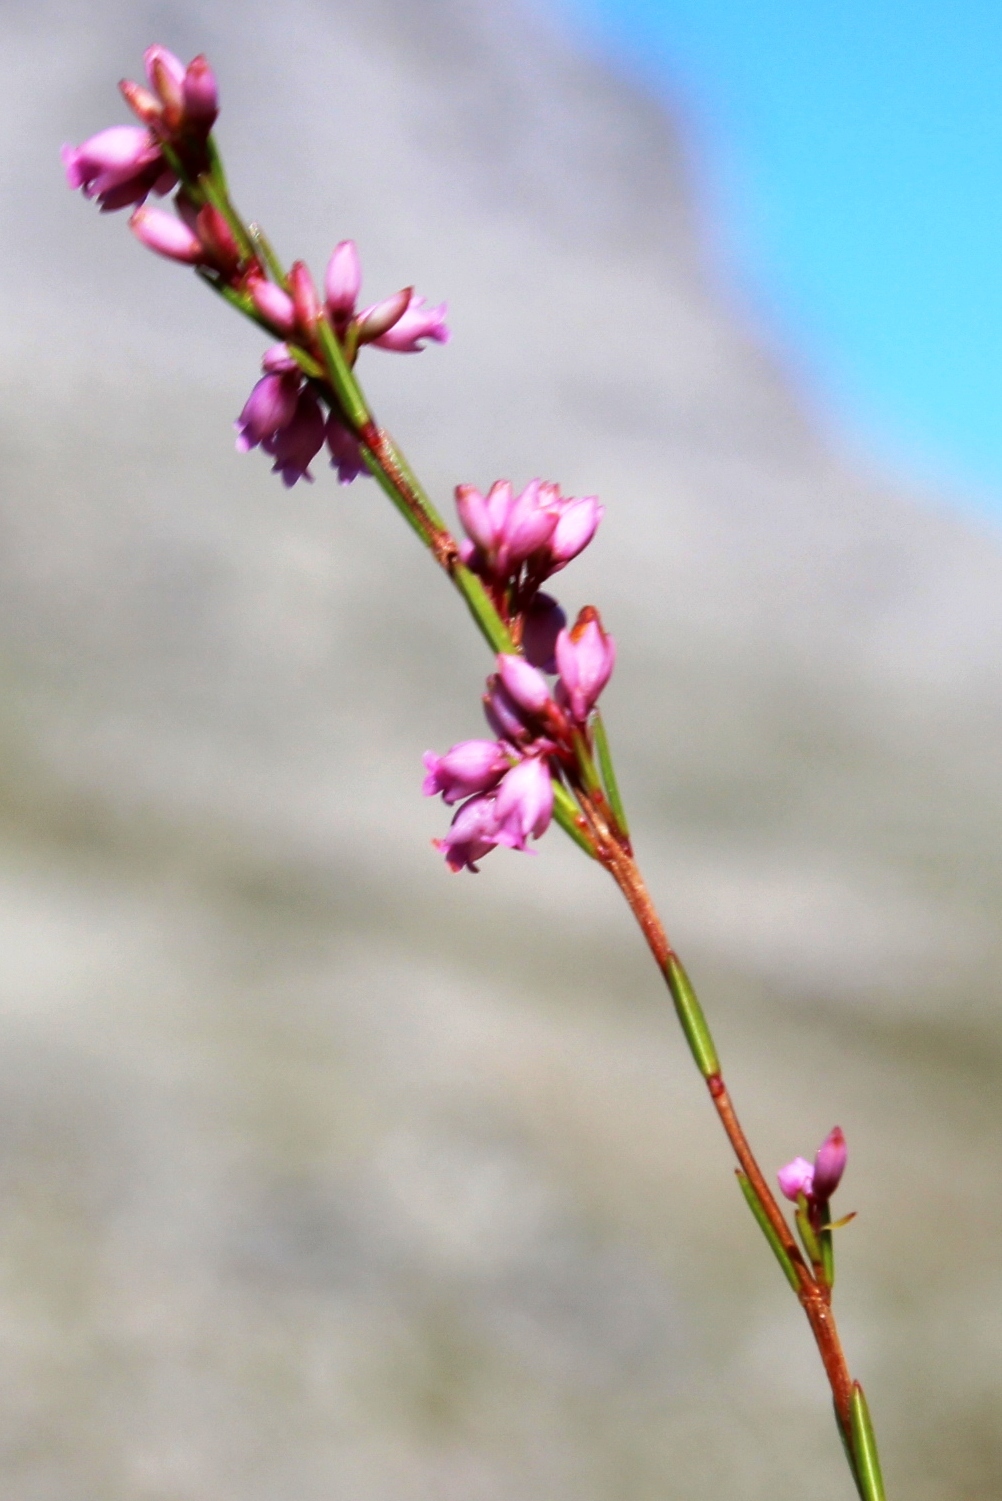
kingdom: Plantae
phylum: Tracheophyta
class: Magnoliopsida
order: Ericales
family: Ericaceae
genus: Erica
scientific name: Erica tenuifolia
